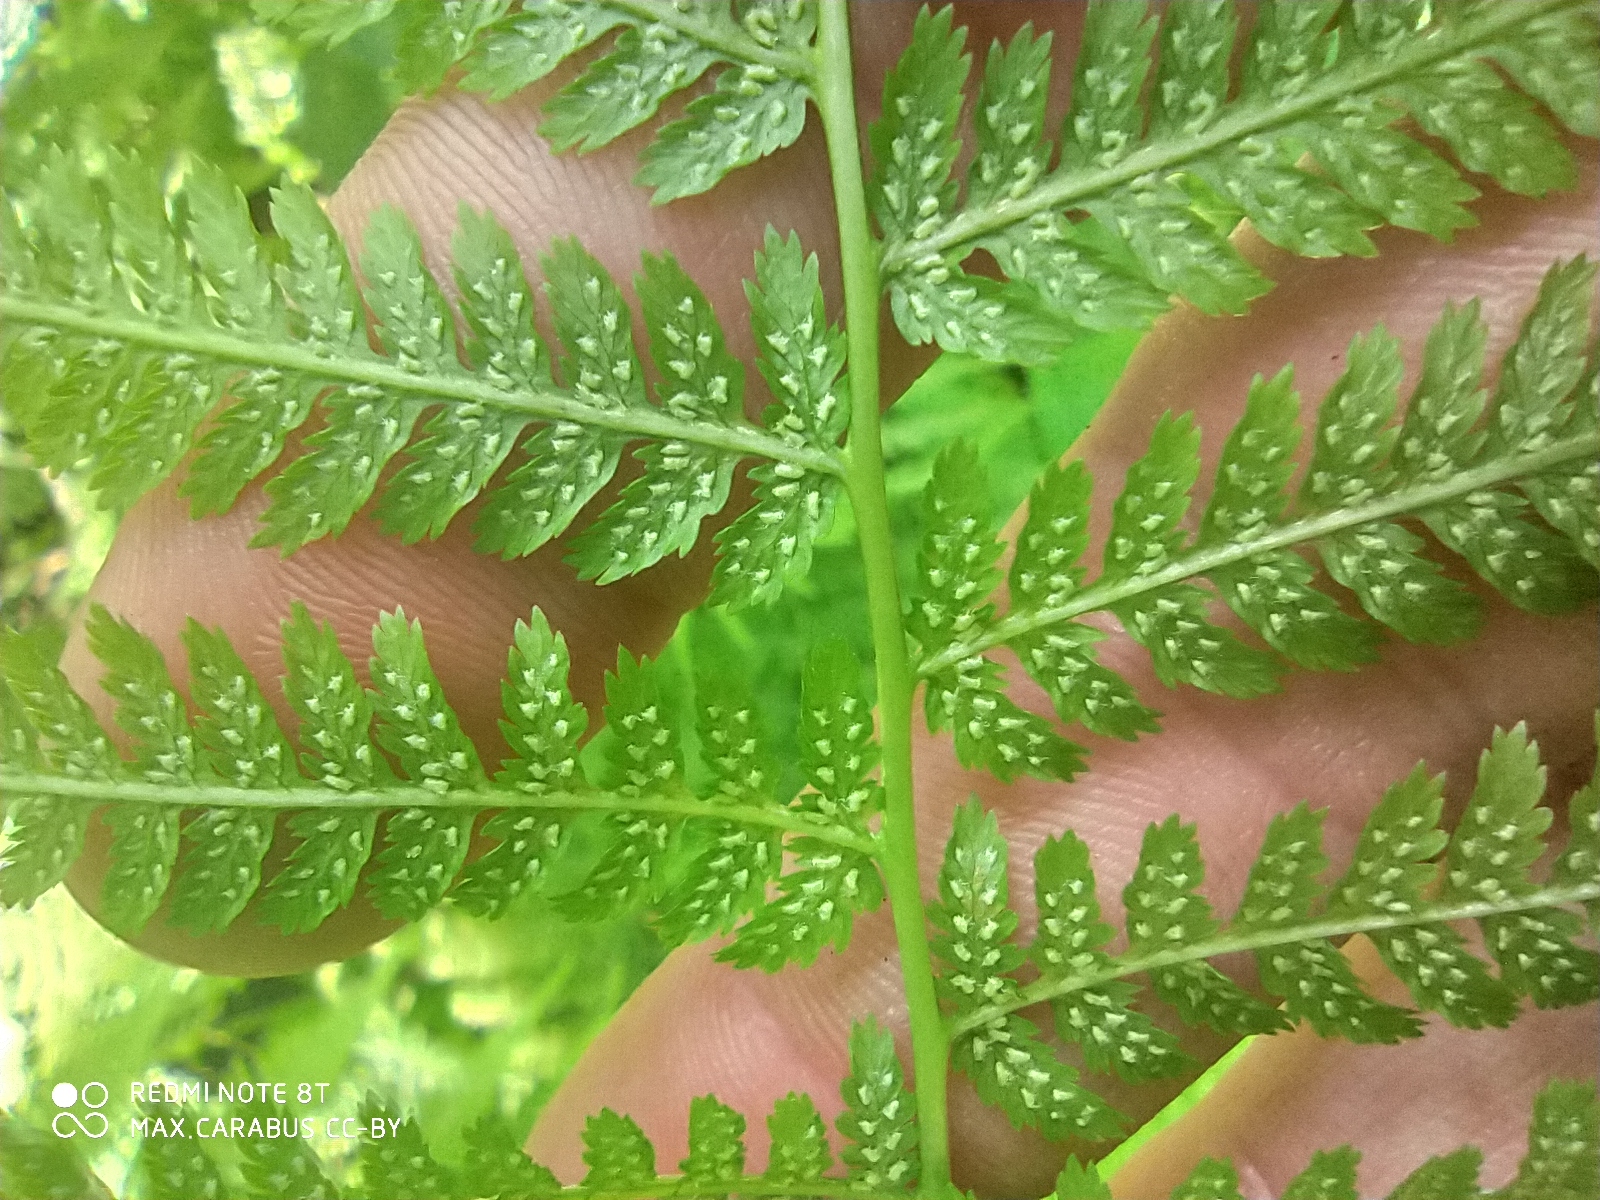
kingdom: Plantae
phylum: Tracheophyta
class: Polypodiopsida
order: Polypodiales
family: Athyriaceae
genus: Athyrium
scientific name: Athyrium filix-femina
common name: Lady fern
